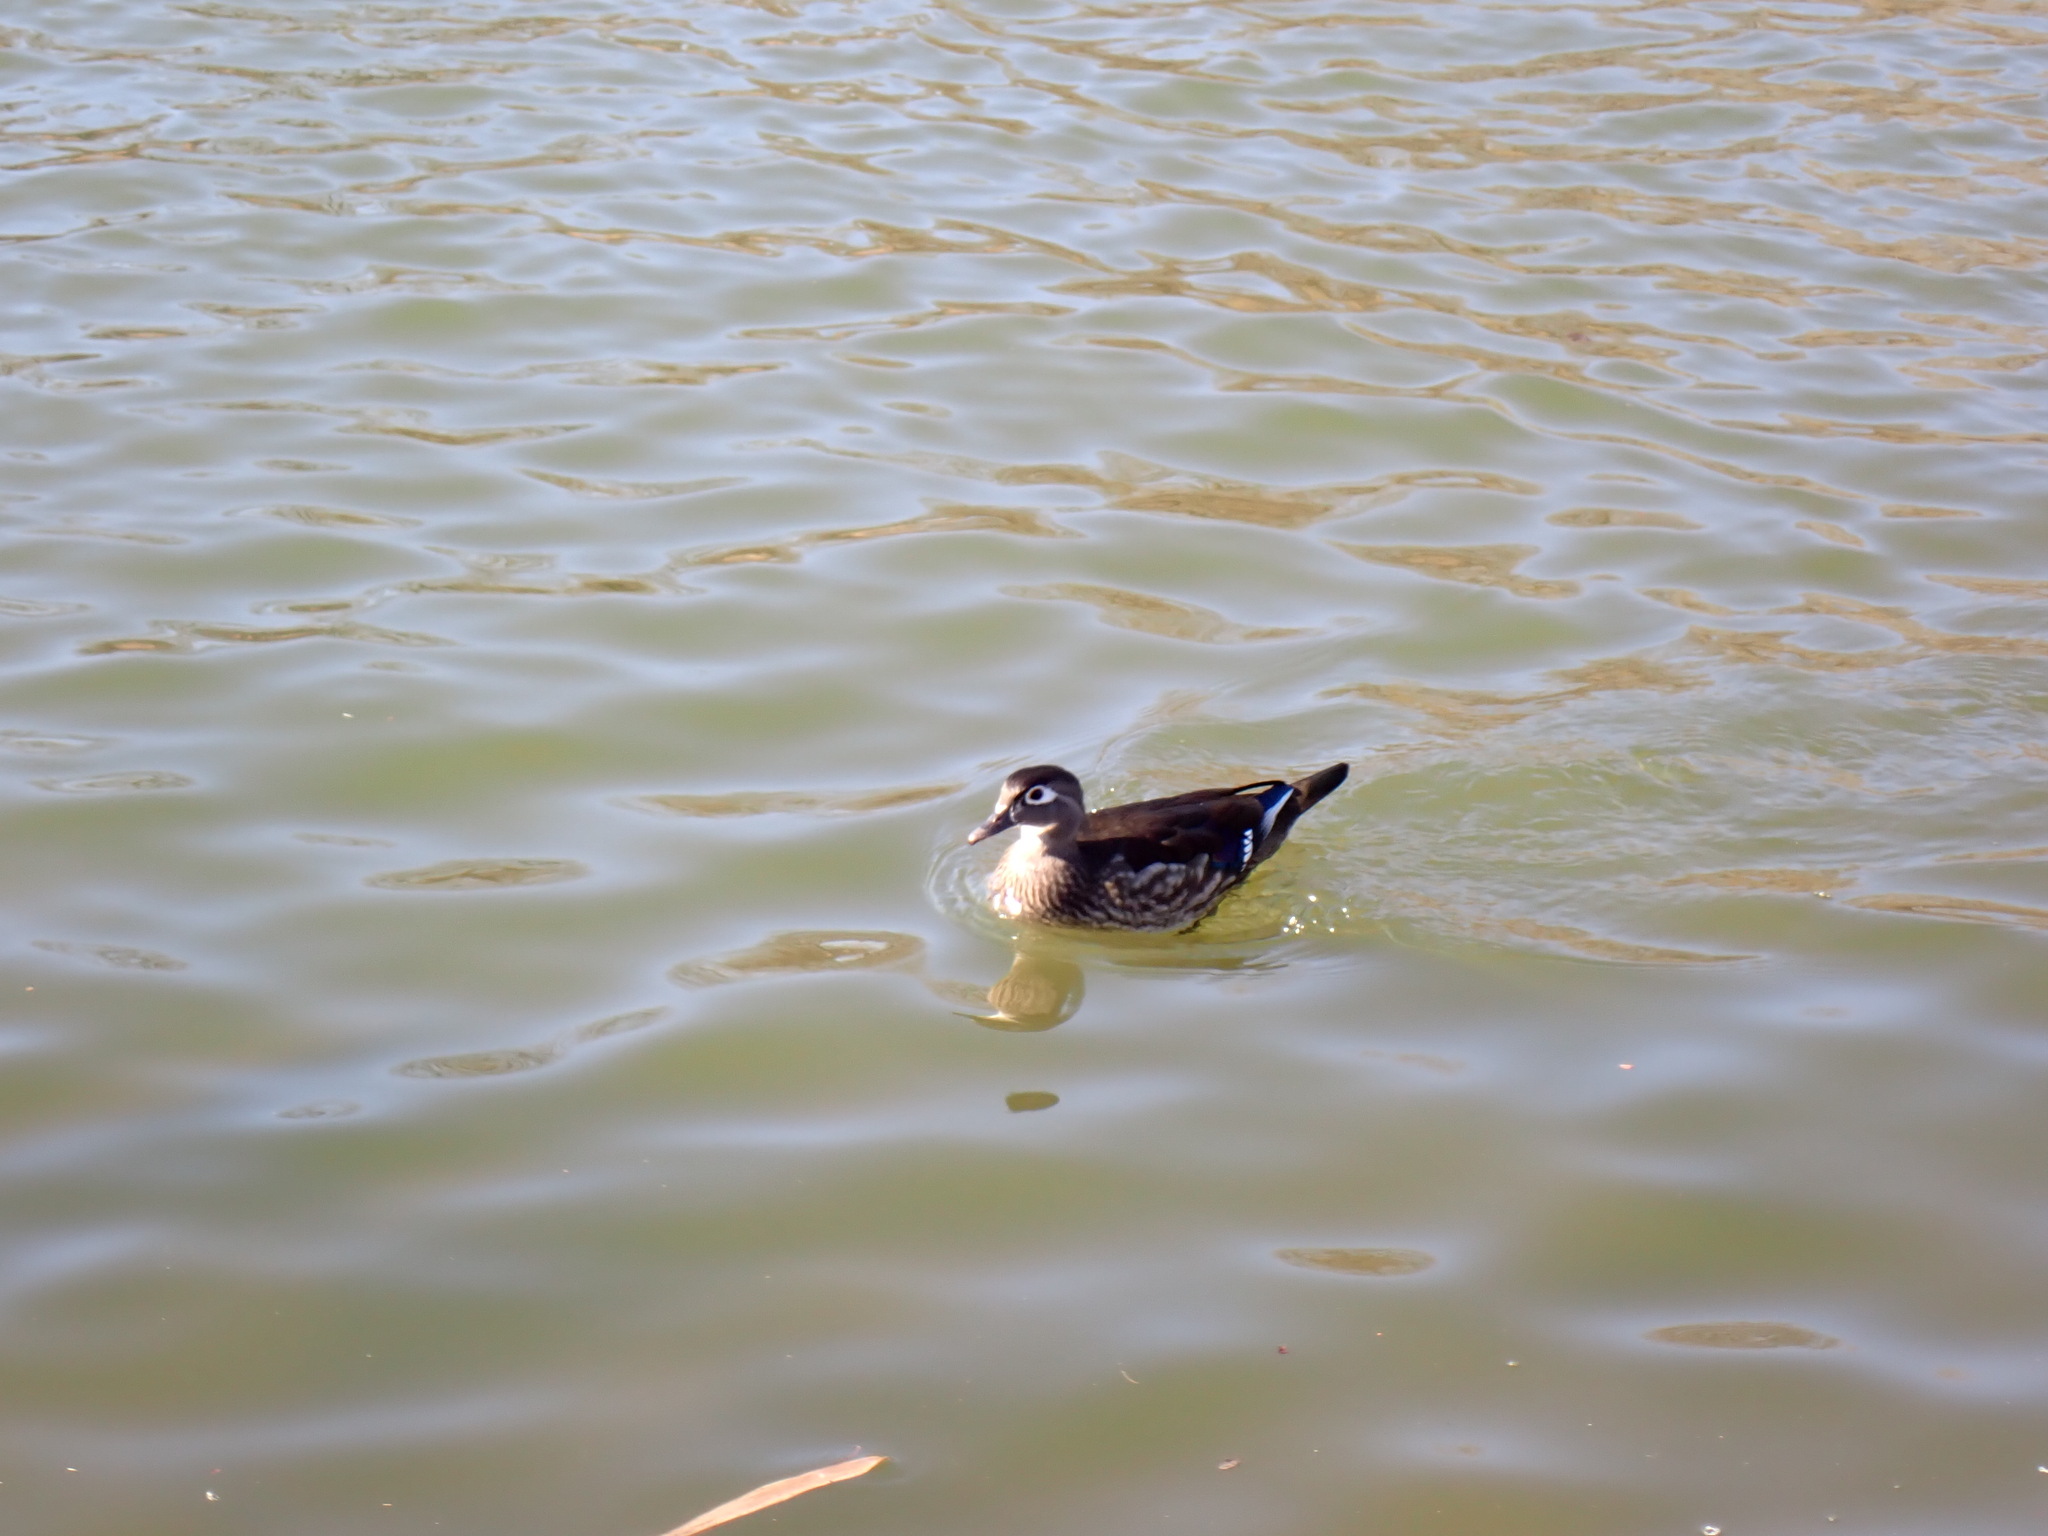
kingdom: Animalia
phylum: Chordata
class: Aves
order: Anseriformes
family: Anatidae
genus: Aix
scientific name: Aix sponsa
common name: Wood duck
